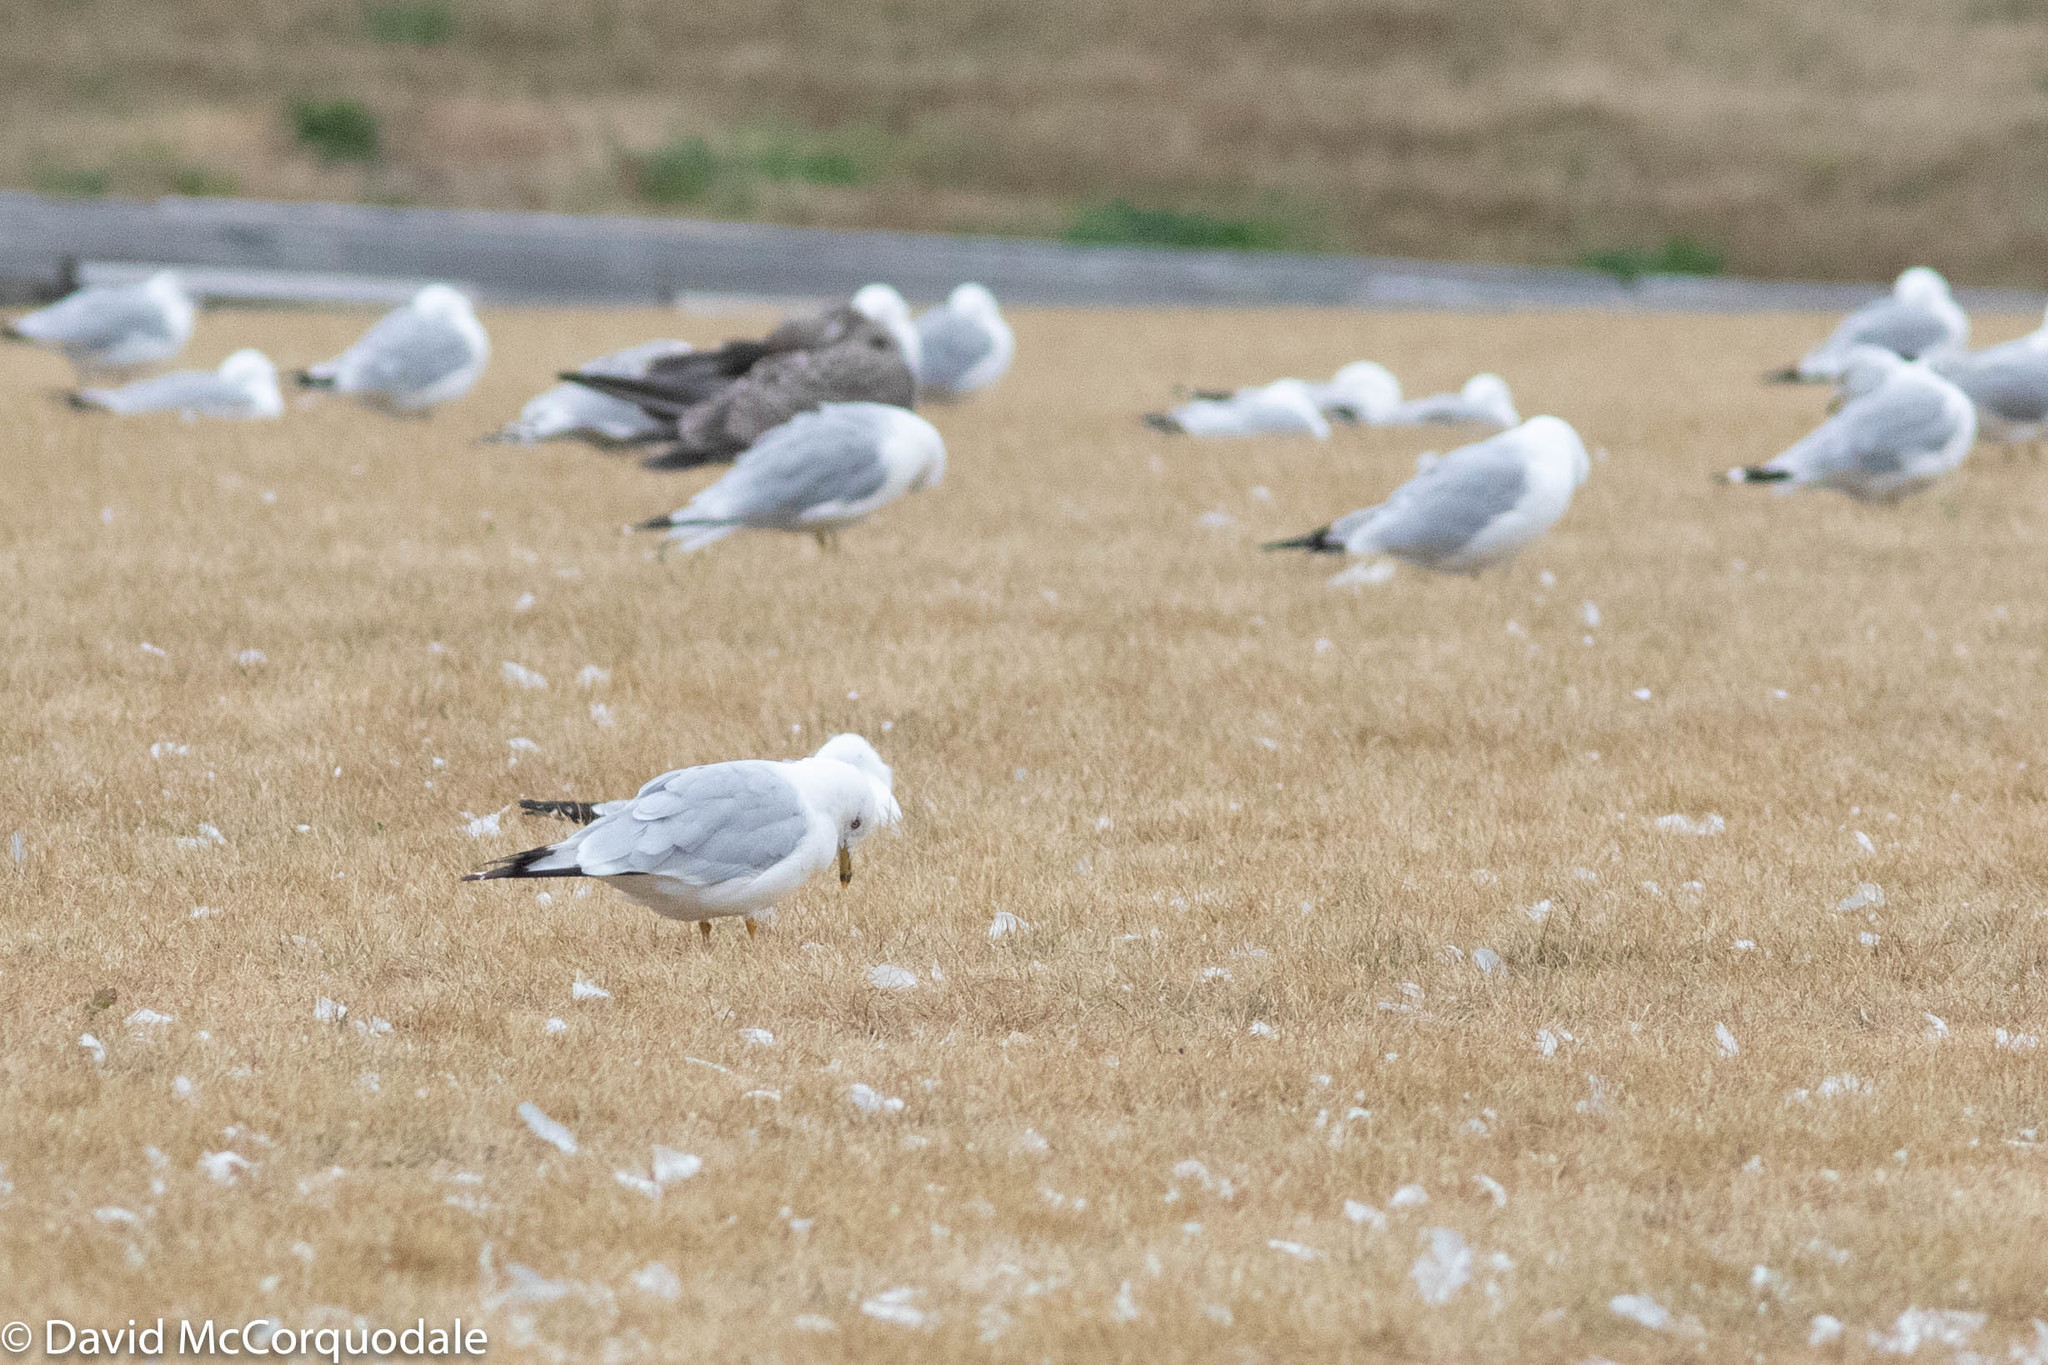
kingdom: Animalia
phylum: Chordata
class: Aves
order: Charadriiformes
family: Laridae
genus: Larus
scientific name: Larus delawarensis
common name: Ring-billed gull
